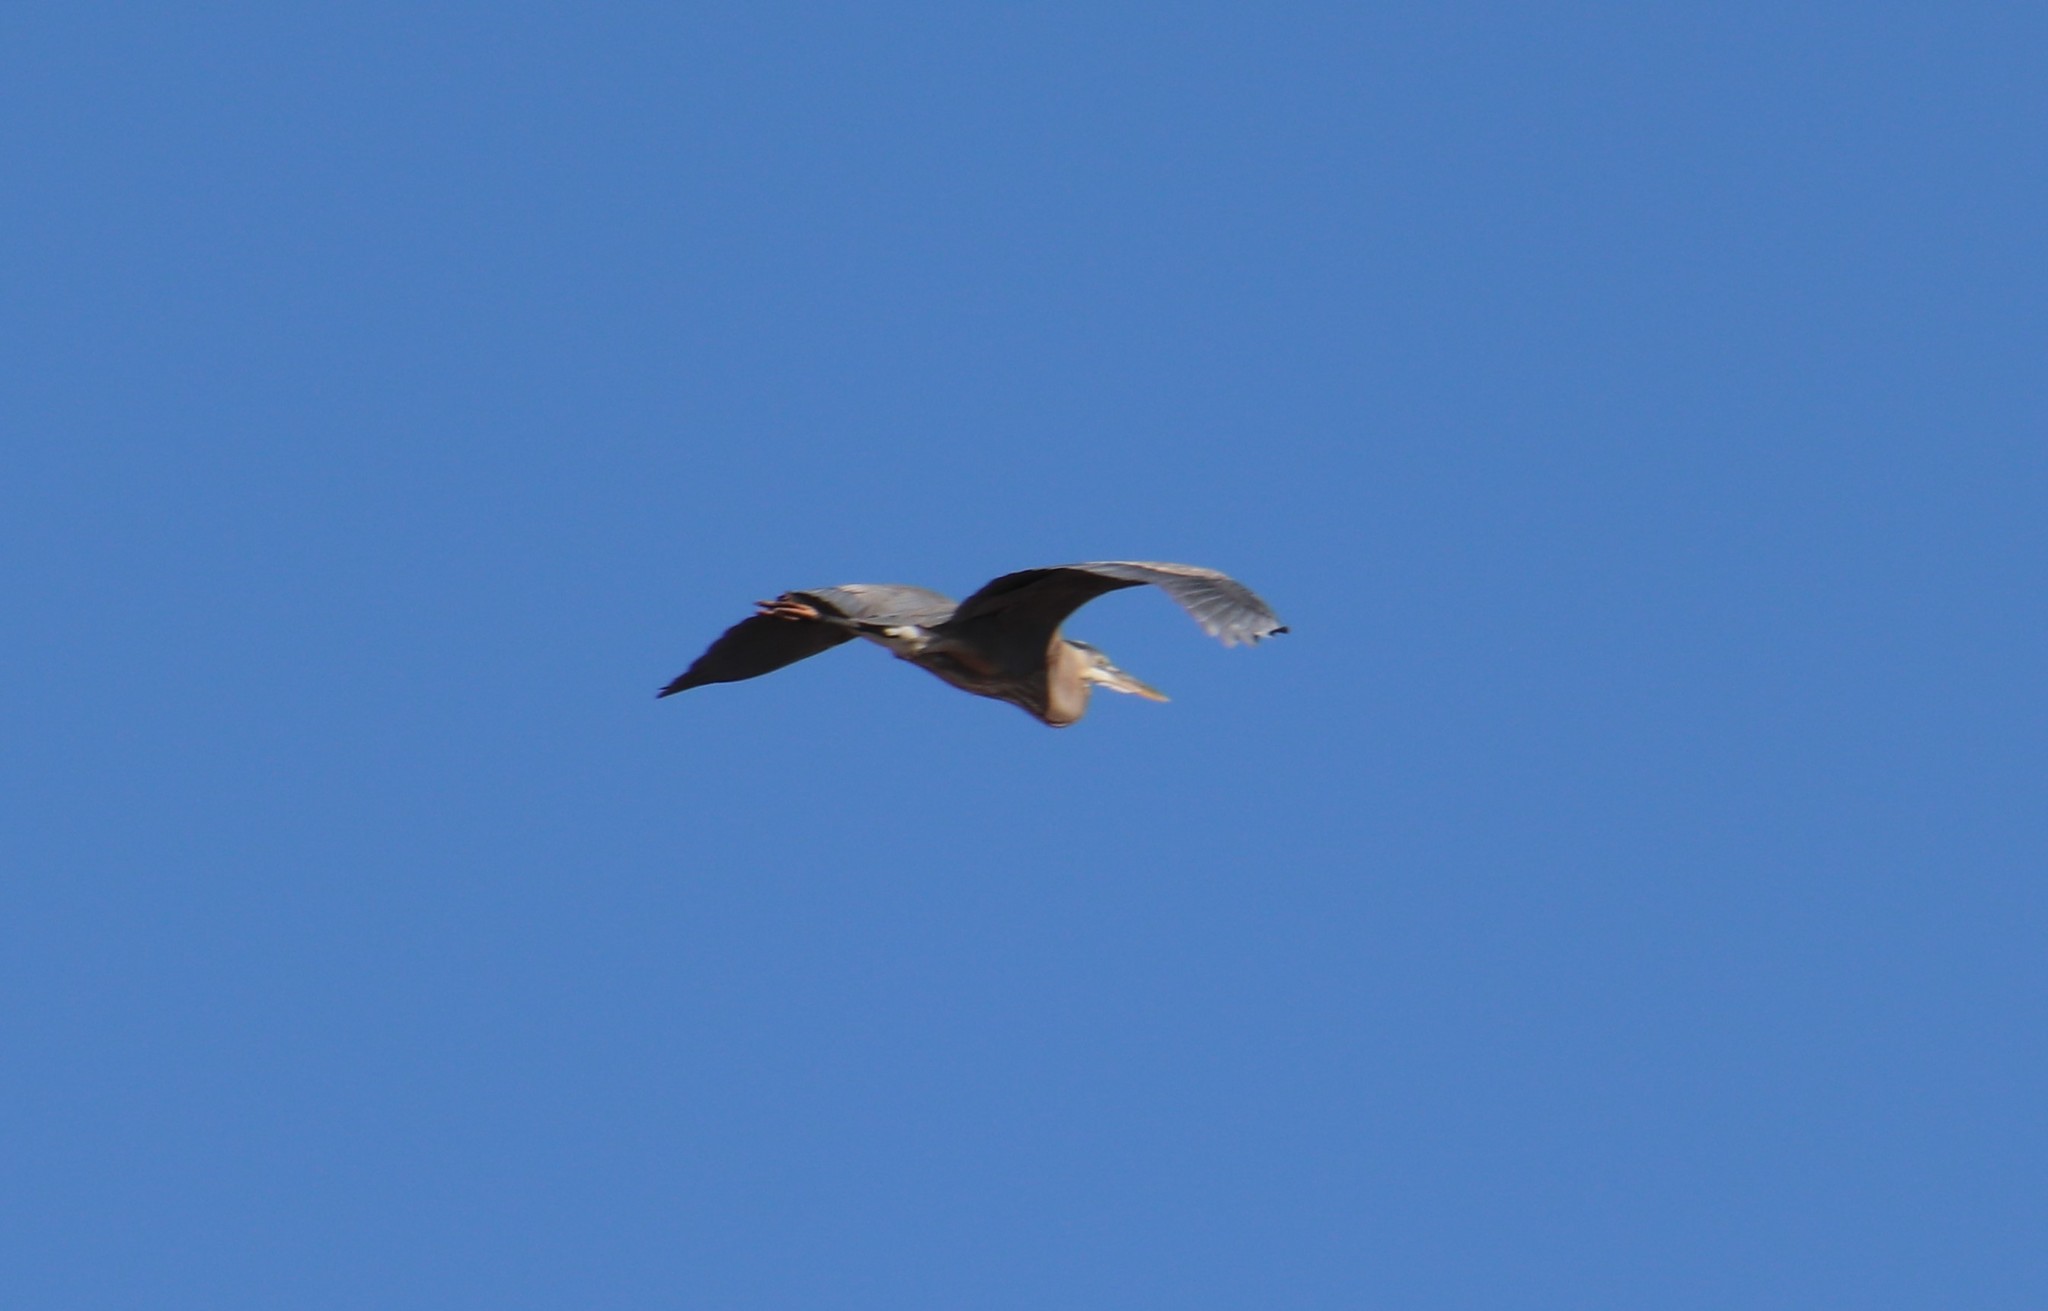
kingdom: Animalia
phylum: Chordata
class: Aves
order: Pelecaniformes
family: Ardeidae
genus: Ardea
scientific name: Ardea herodias
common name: Great blue heron
